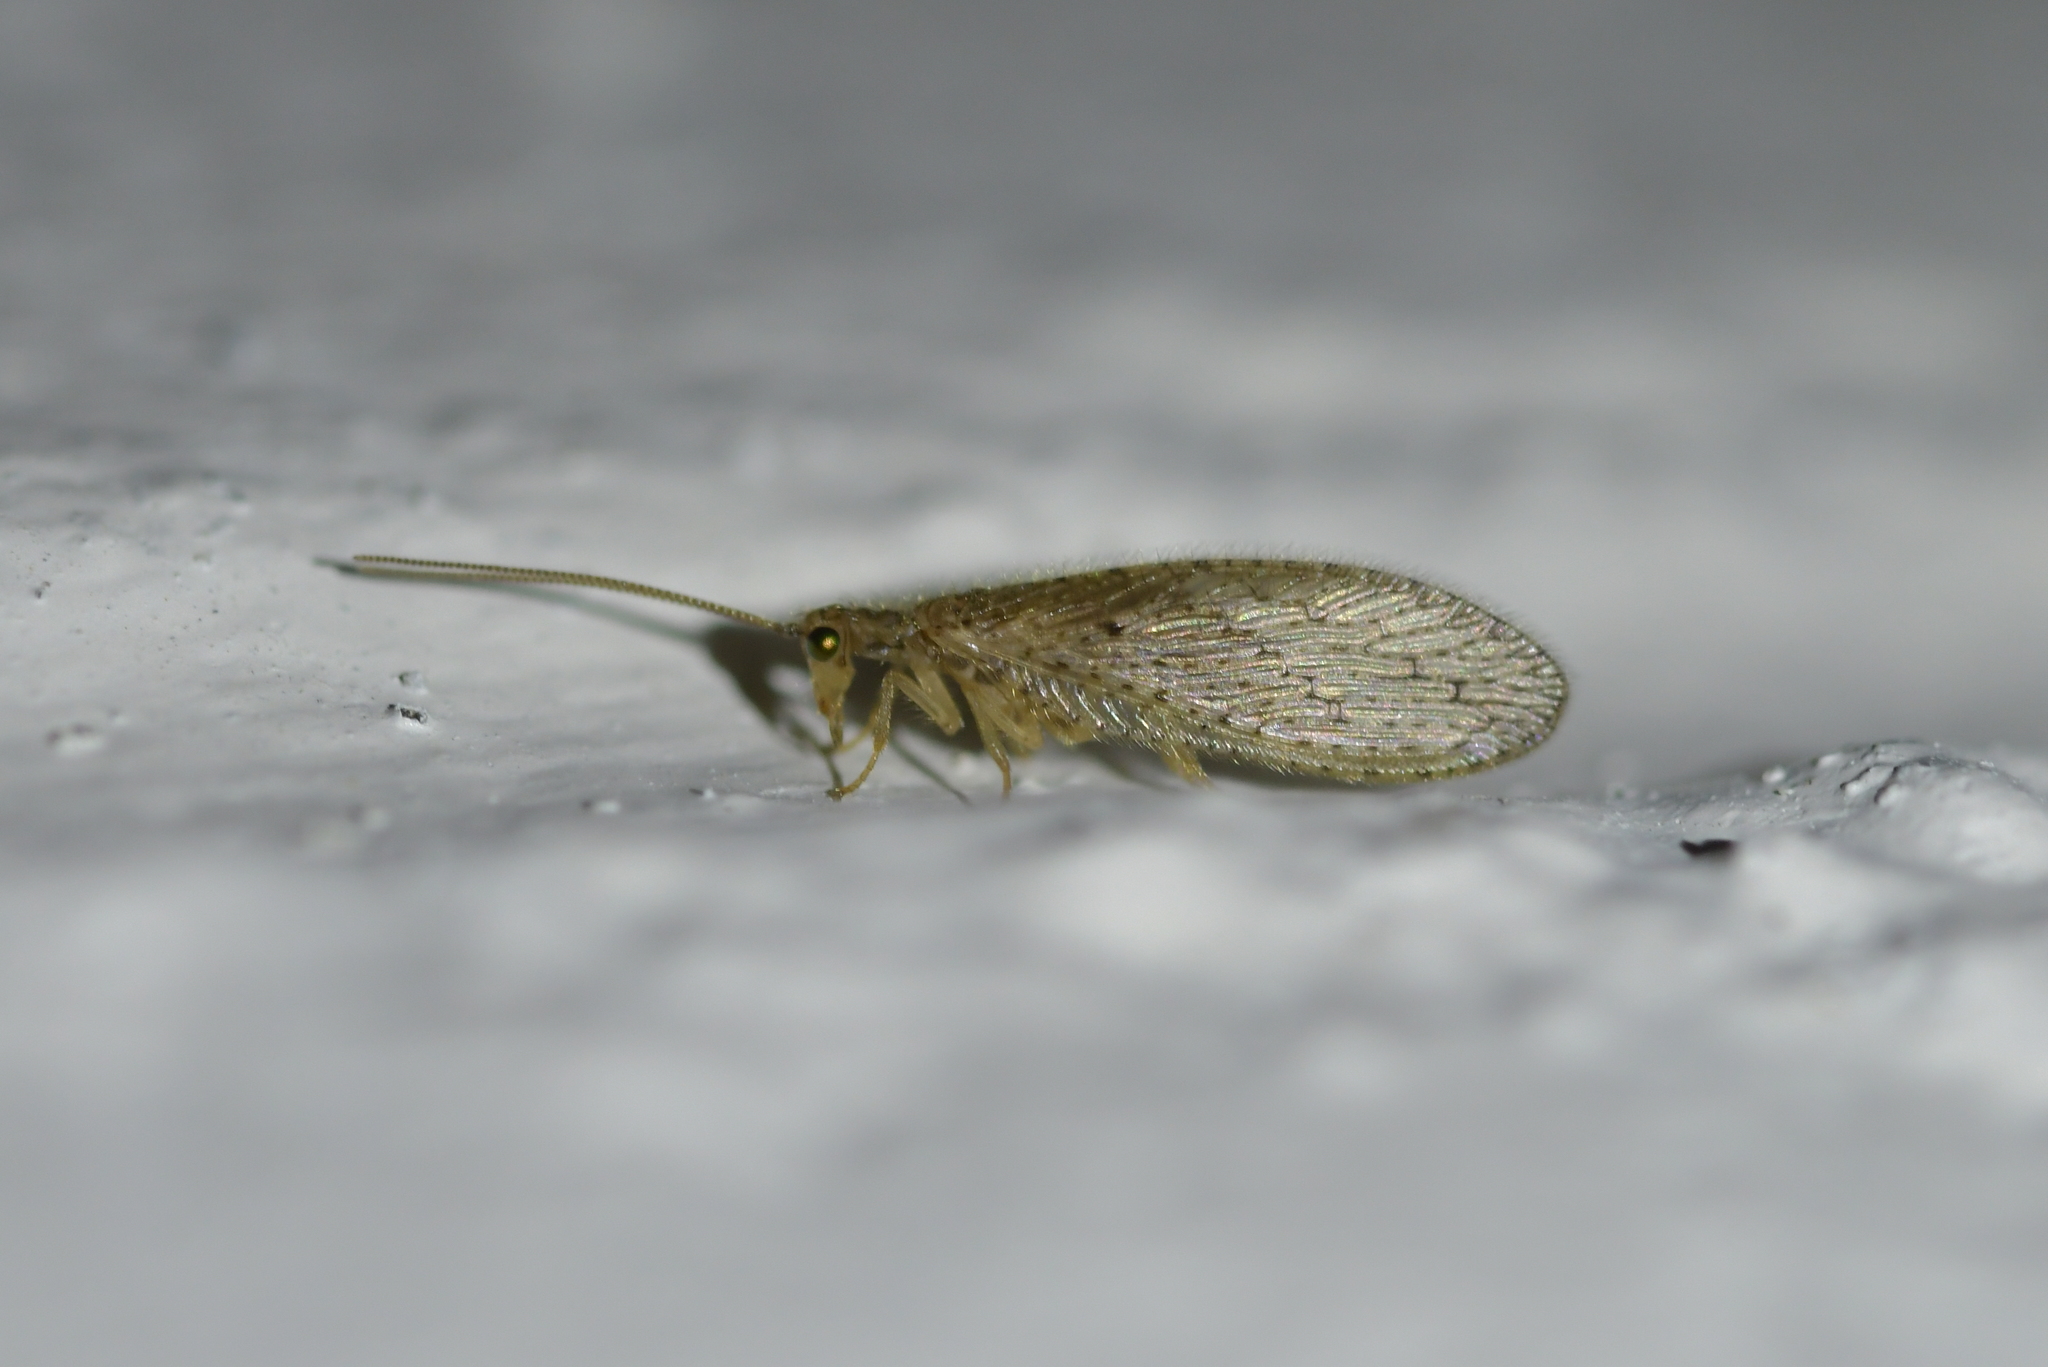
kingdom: Animalia
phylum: Arthropoda
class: Insecta
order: Neuroptera
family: Hemerobiidae
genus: Micromus
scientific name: Micromus tasmaniae
